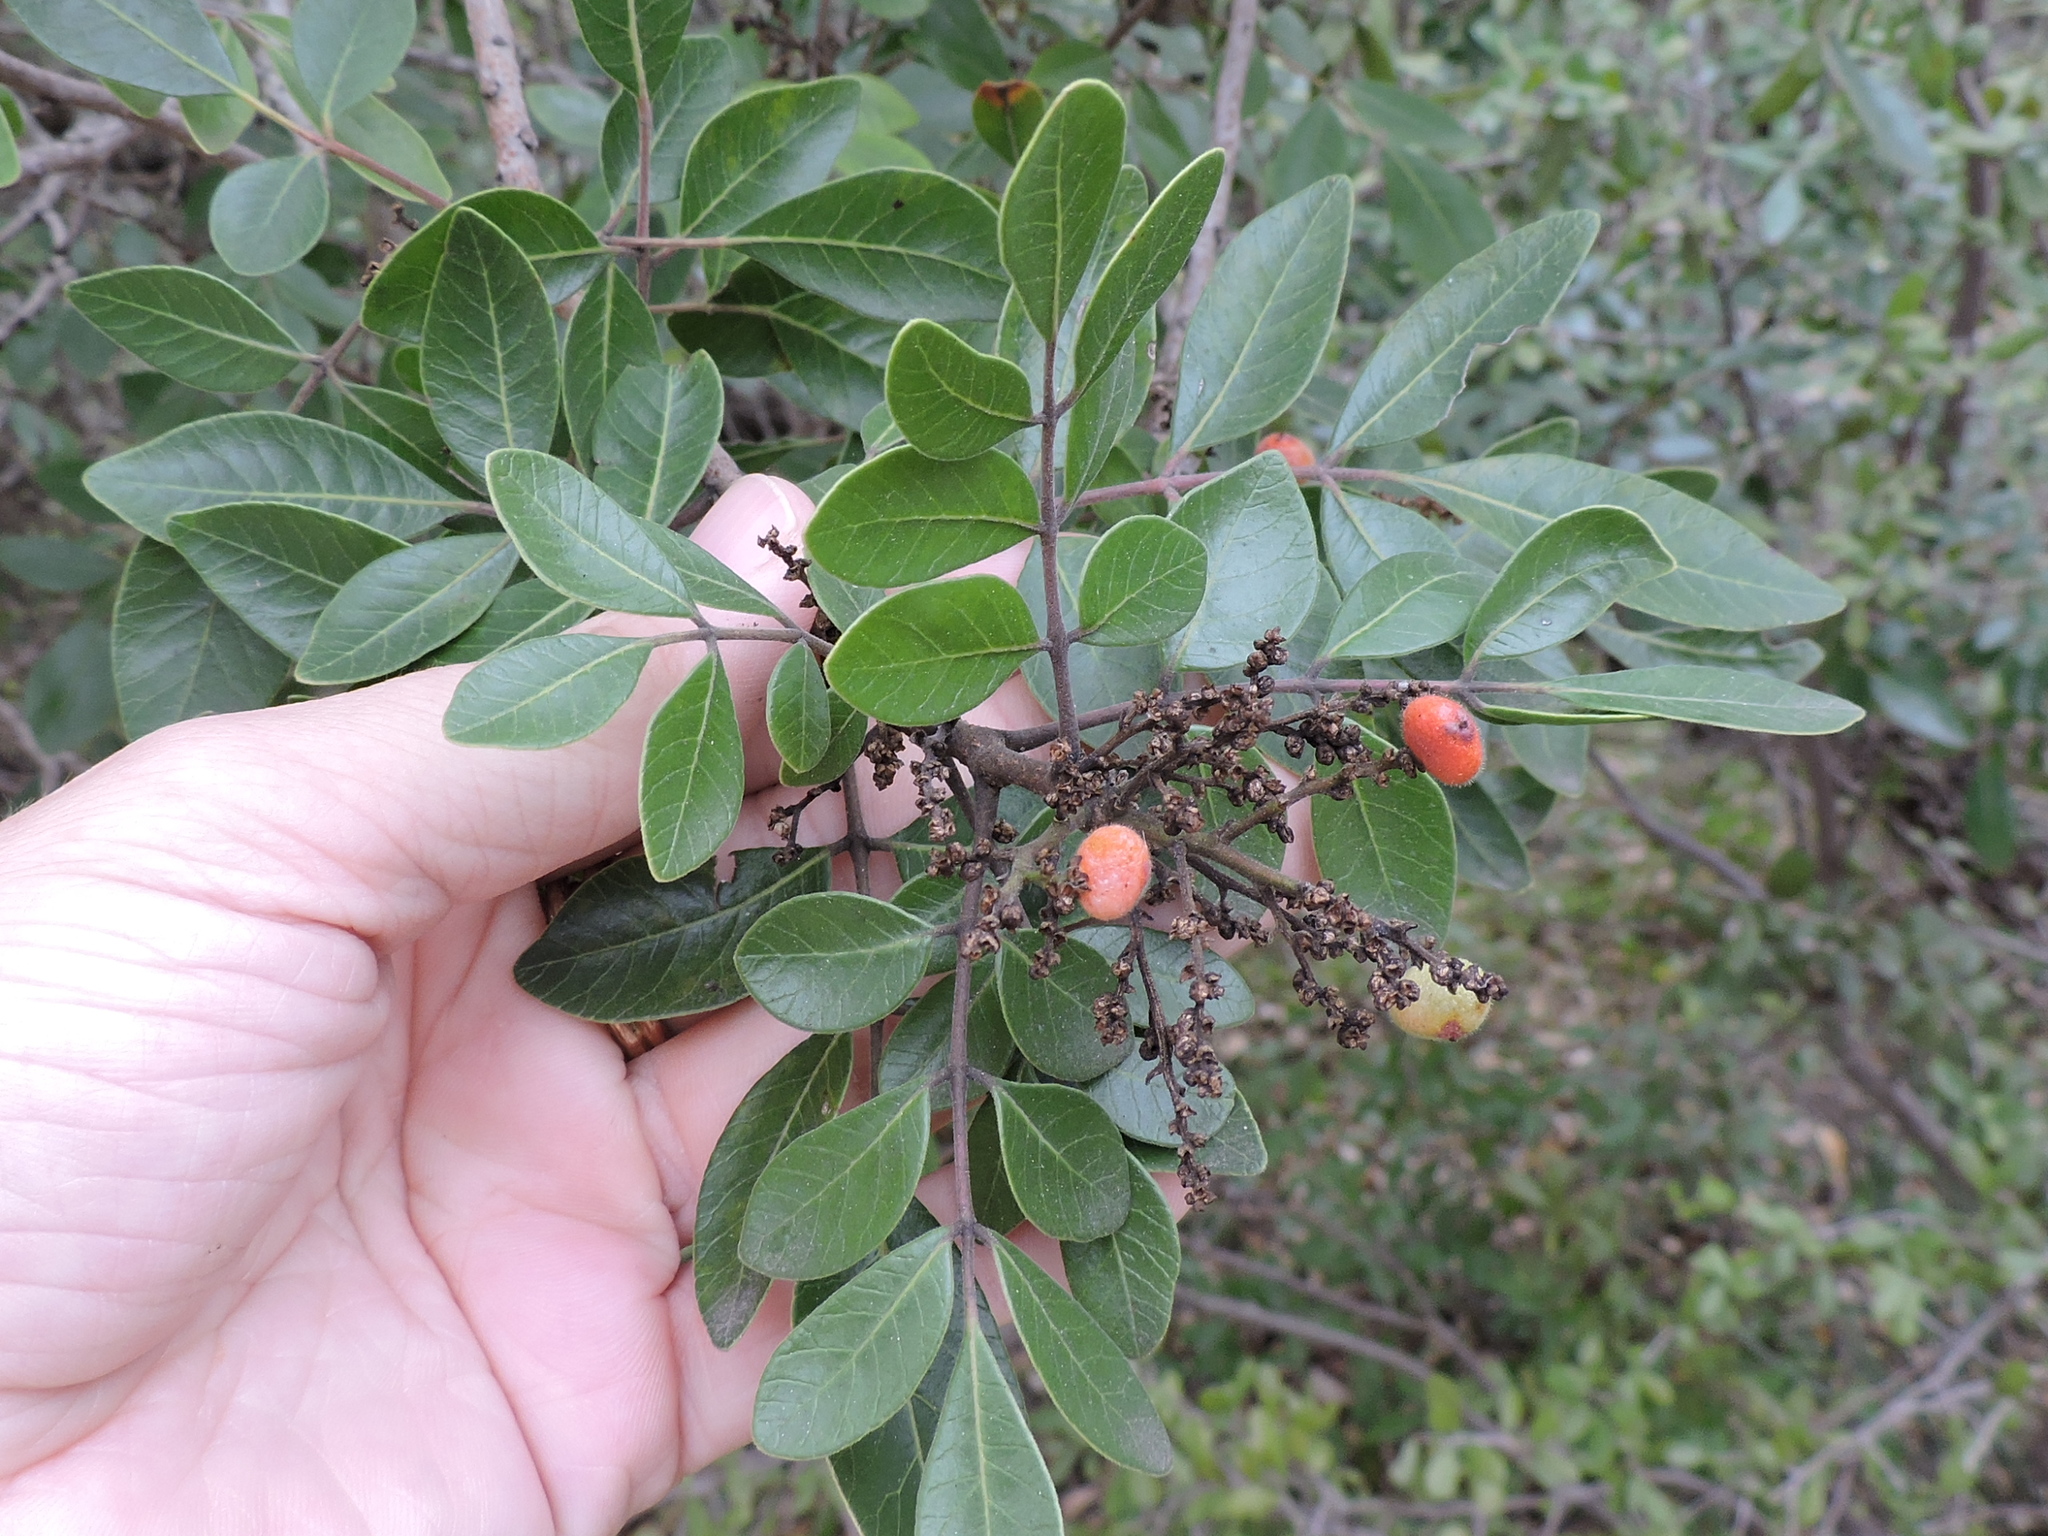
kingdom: Plantae
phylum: Tracheophyta
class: Magnoliopsida
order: Sapindales
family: Anacardiaceae
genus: Rhus
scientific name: Rhus virens
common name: Evergreen sumac
